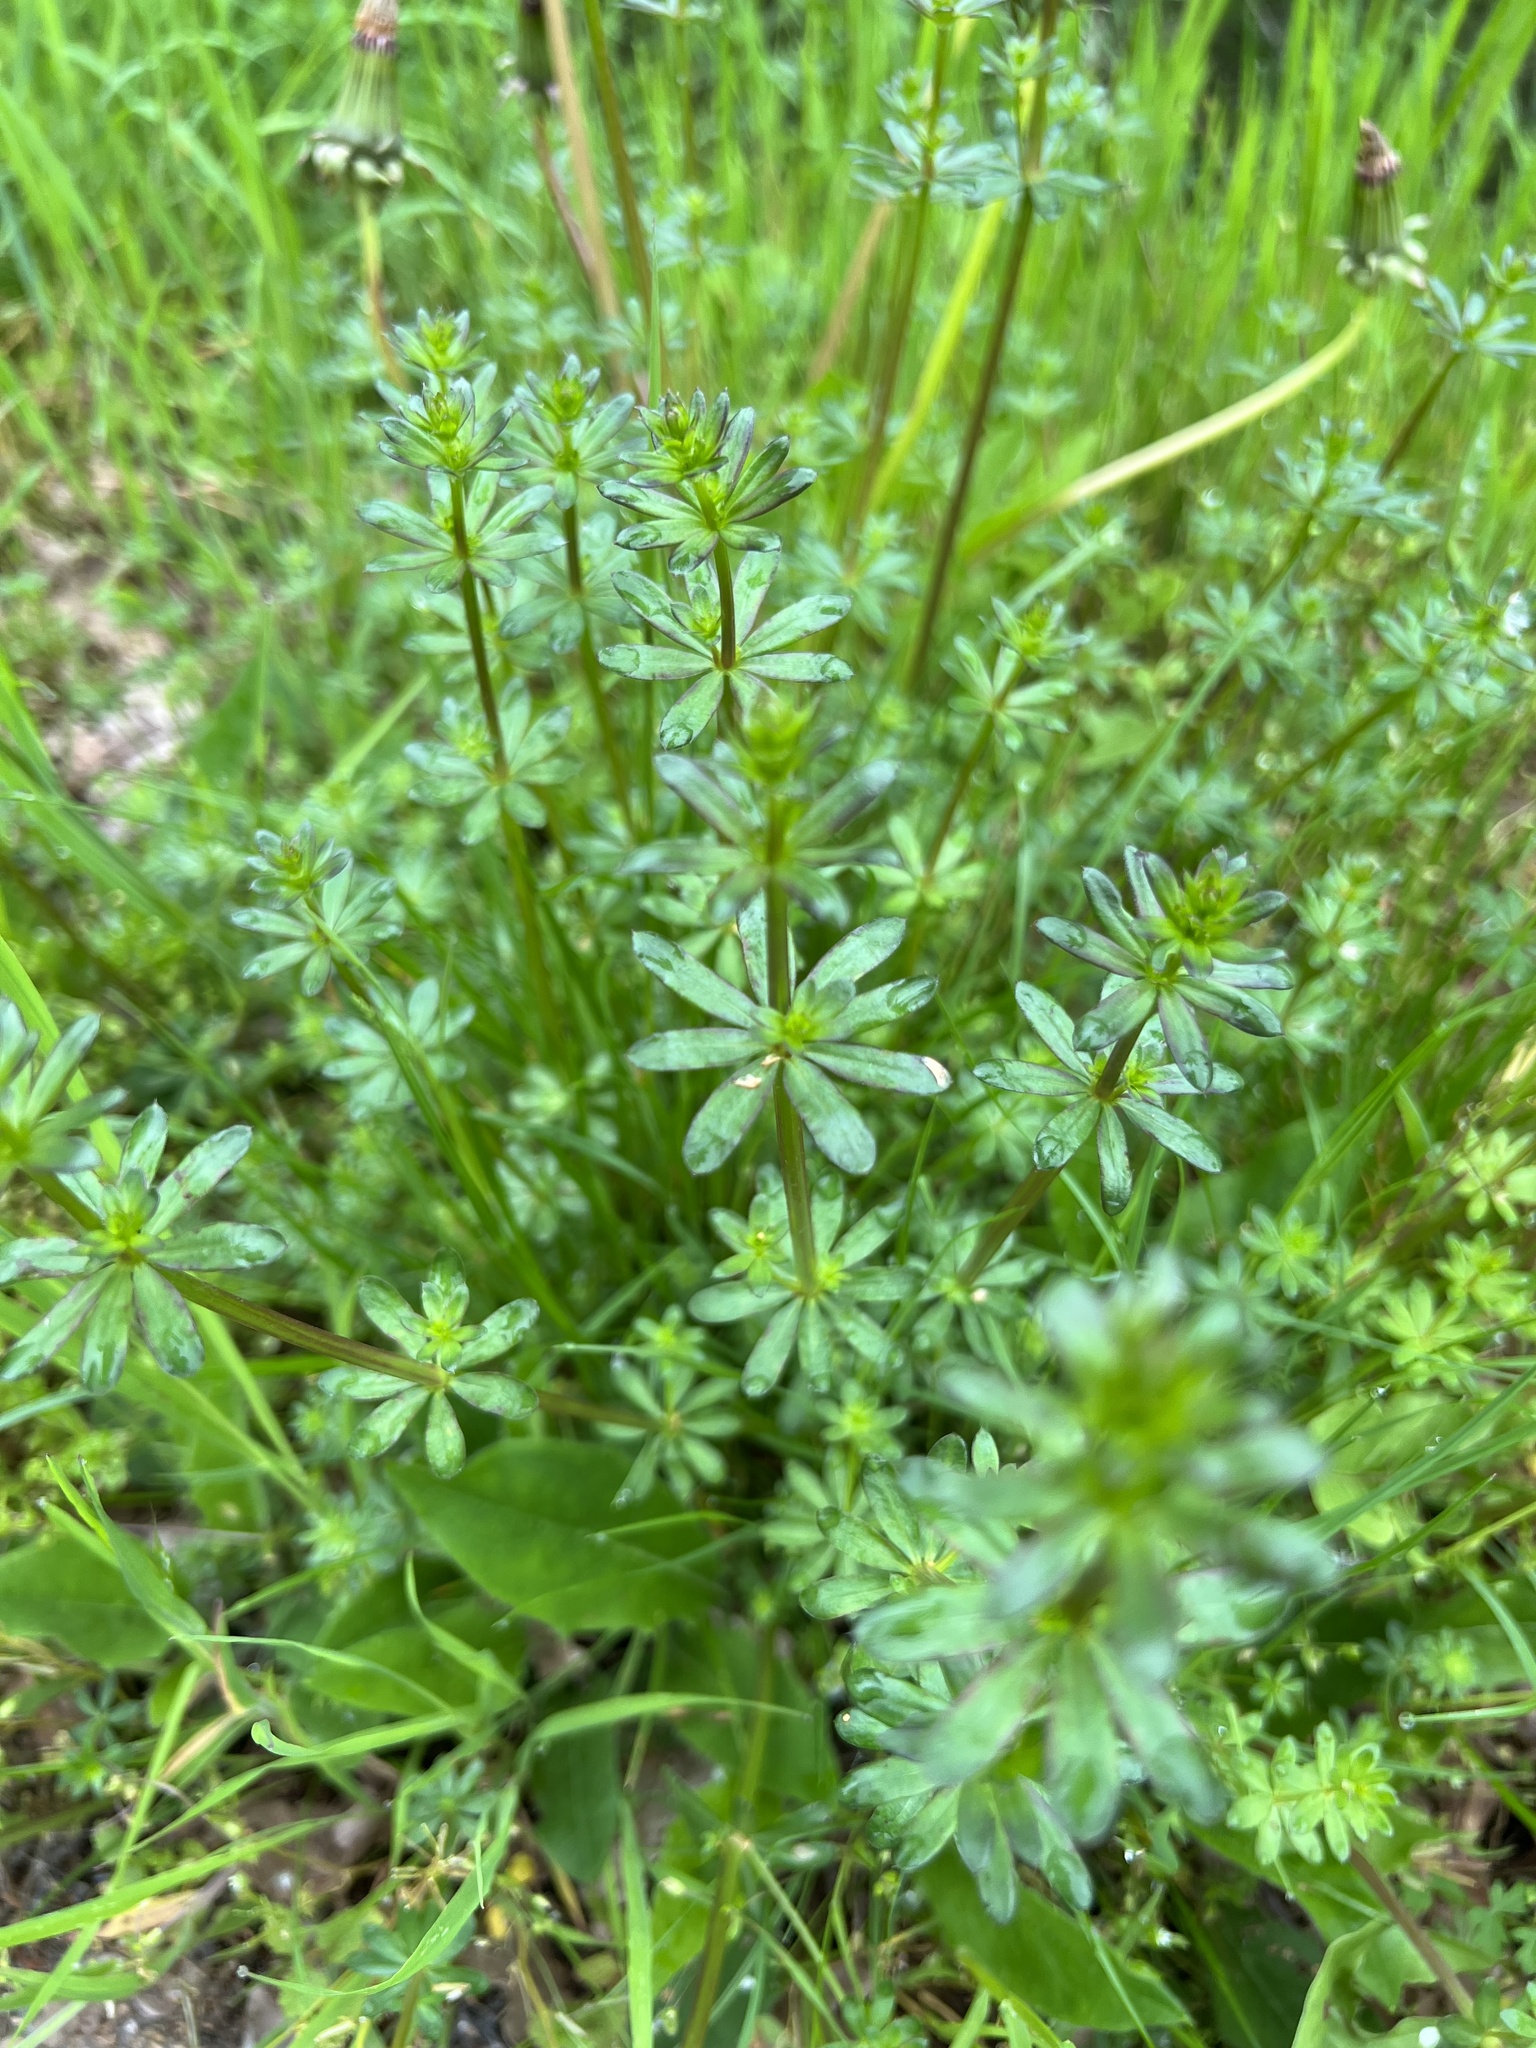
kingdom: Plantae
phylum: Tracheophyta
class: Magnoliopsida
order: Gentianales
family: Rubiaceae
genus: Galium
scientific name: Galium mollugo
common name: Hedge bedstraw
